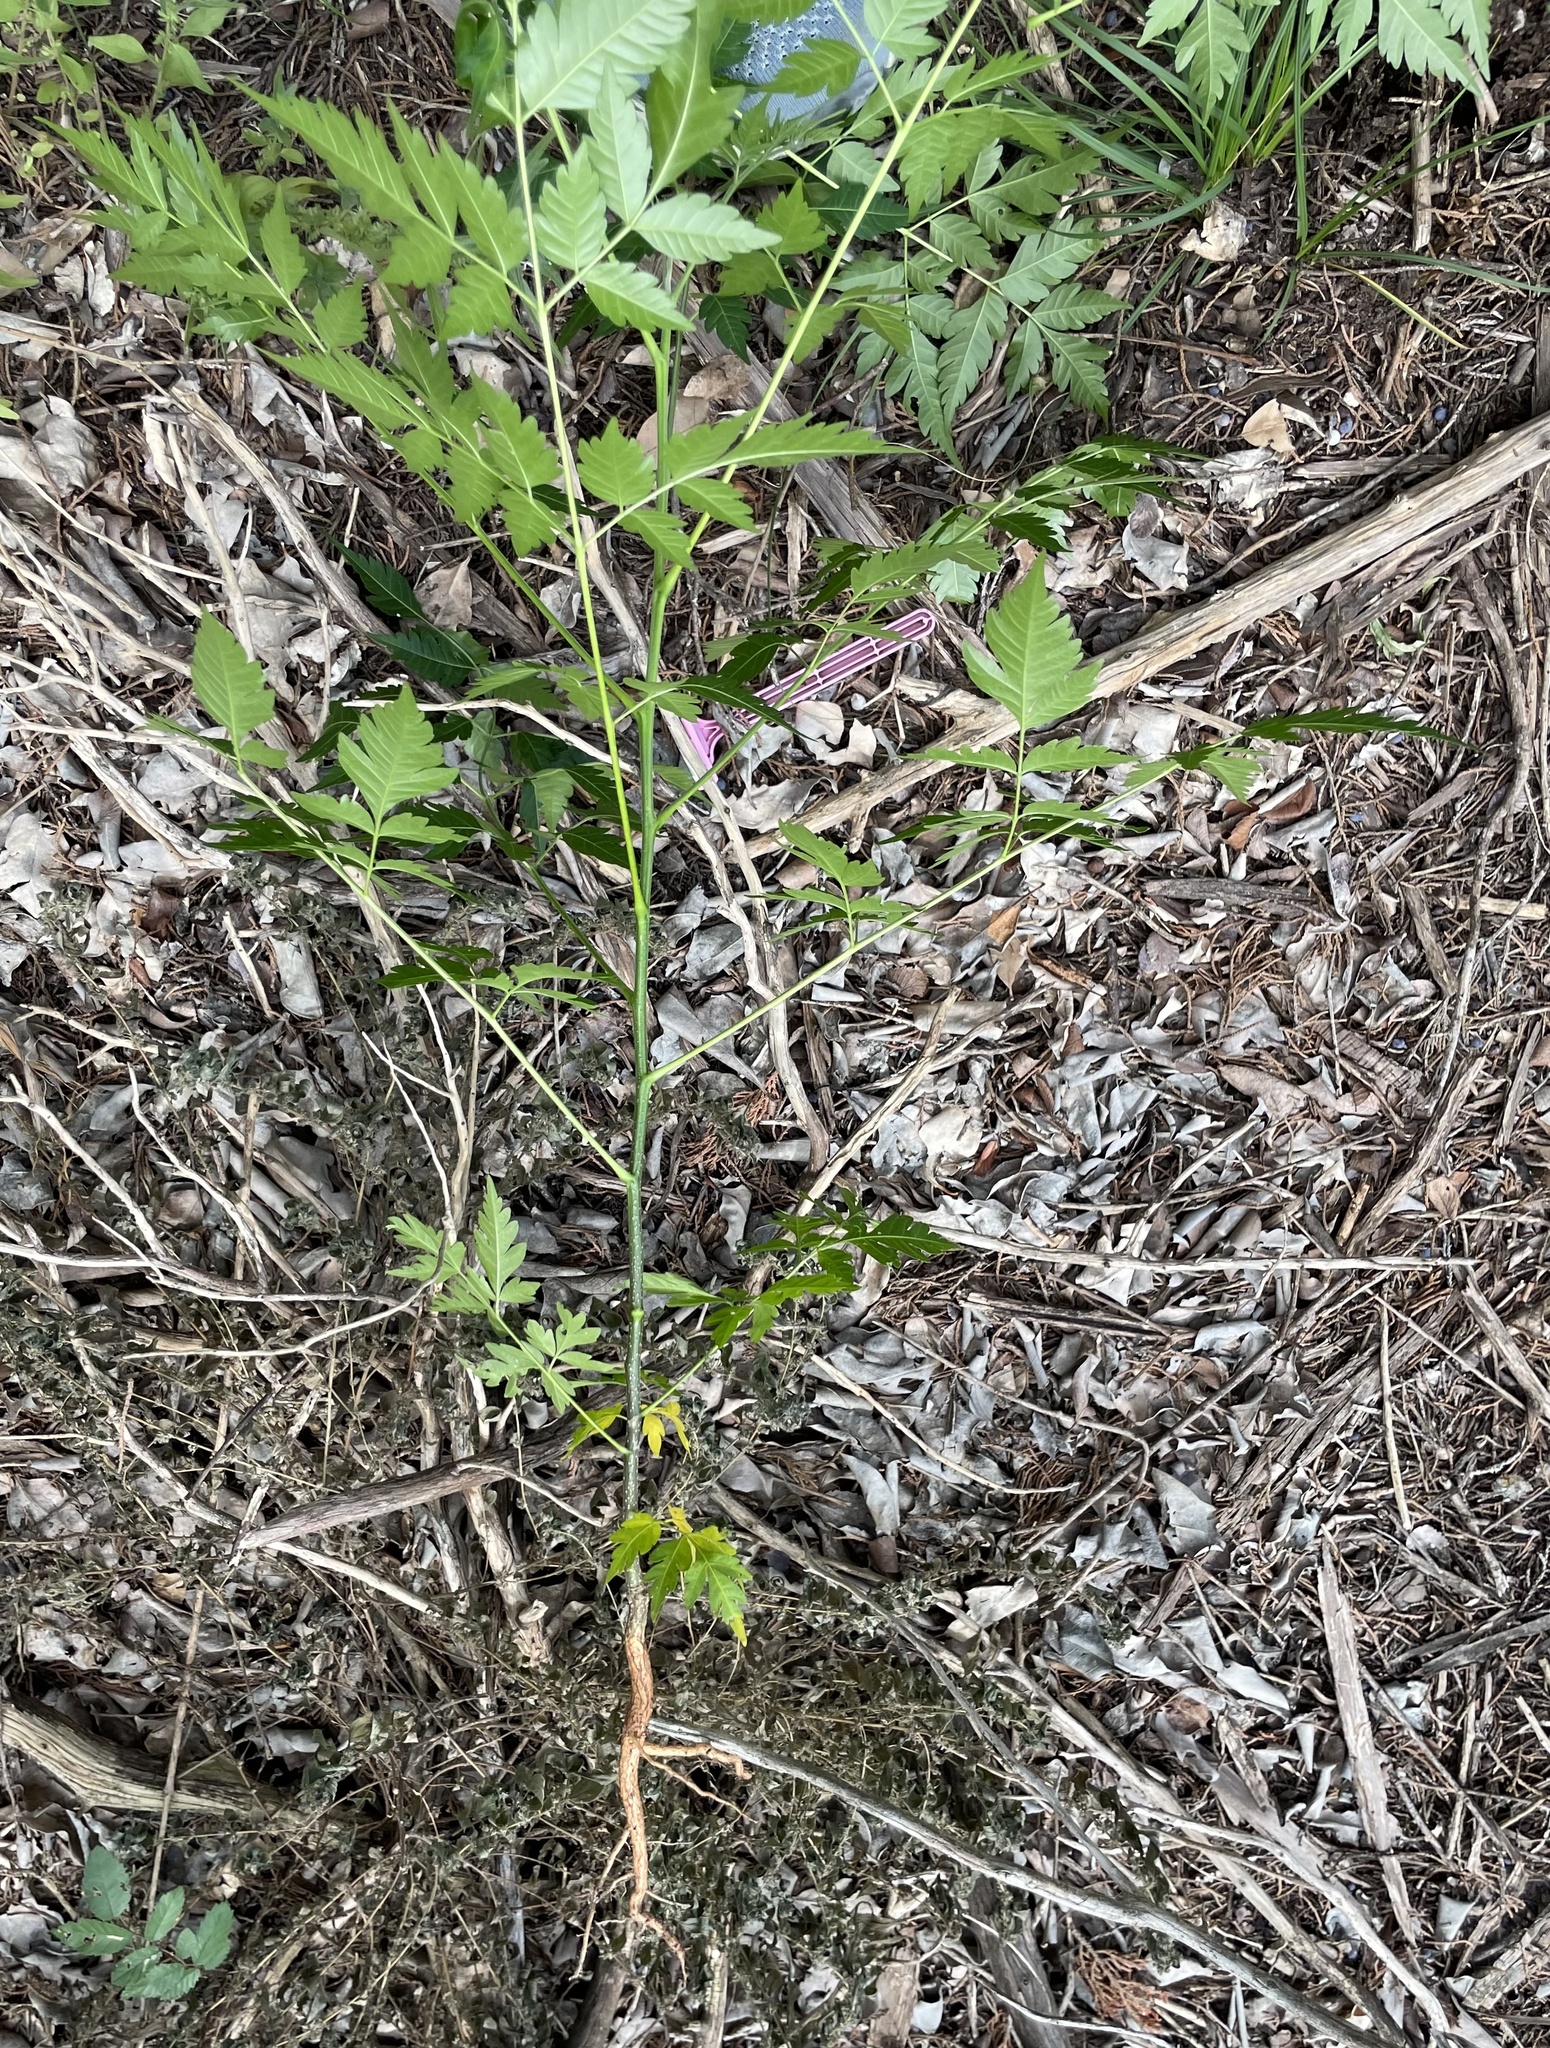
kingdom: Plantae
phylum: Tracheophyta
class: Magnoliopsida
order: Sapindales
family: Meliaceae
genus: Melia
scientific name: Melia azedarach
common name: Chinaberrytree
